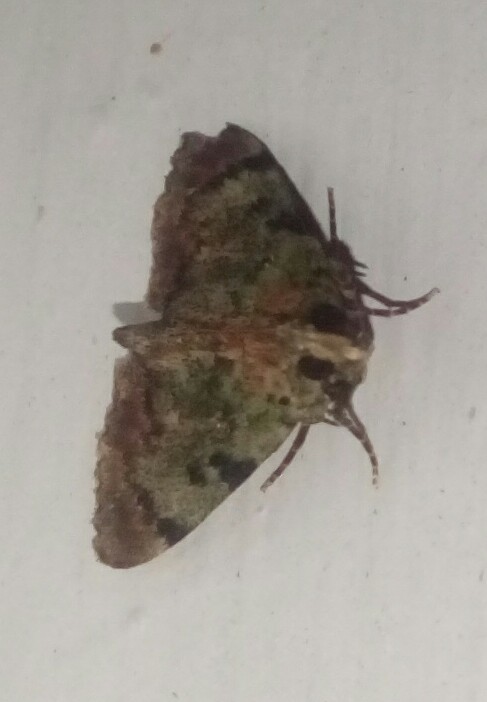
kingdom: Animalia
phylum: Arthropoda
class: Insecta
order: Lepidoptera
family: Pyralidae
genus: Epipaschia
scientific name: Epipaschia superatalis
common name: Dimorphic macalla moth
